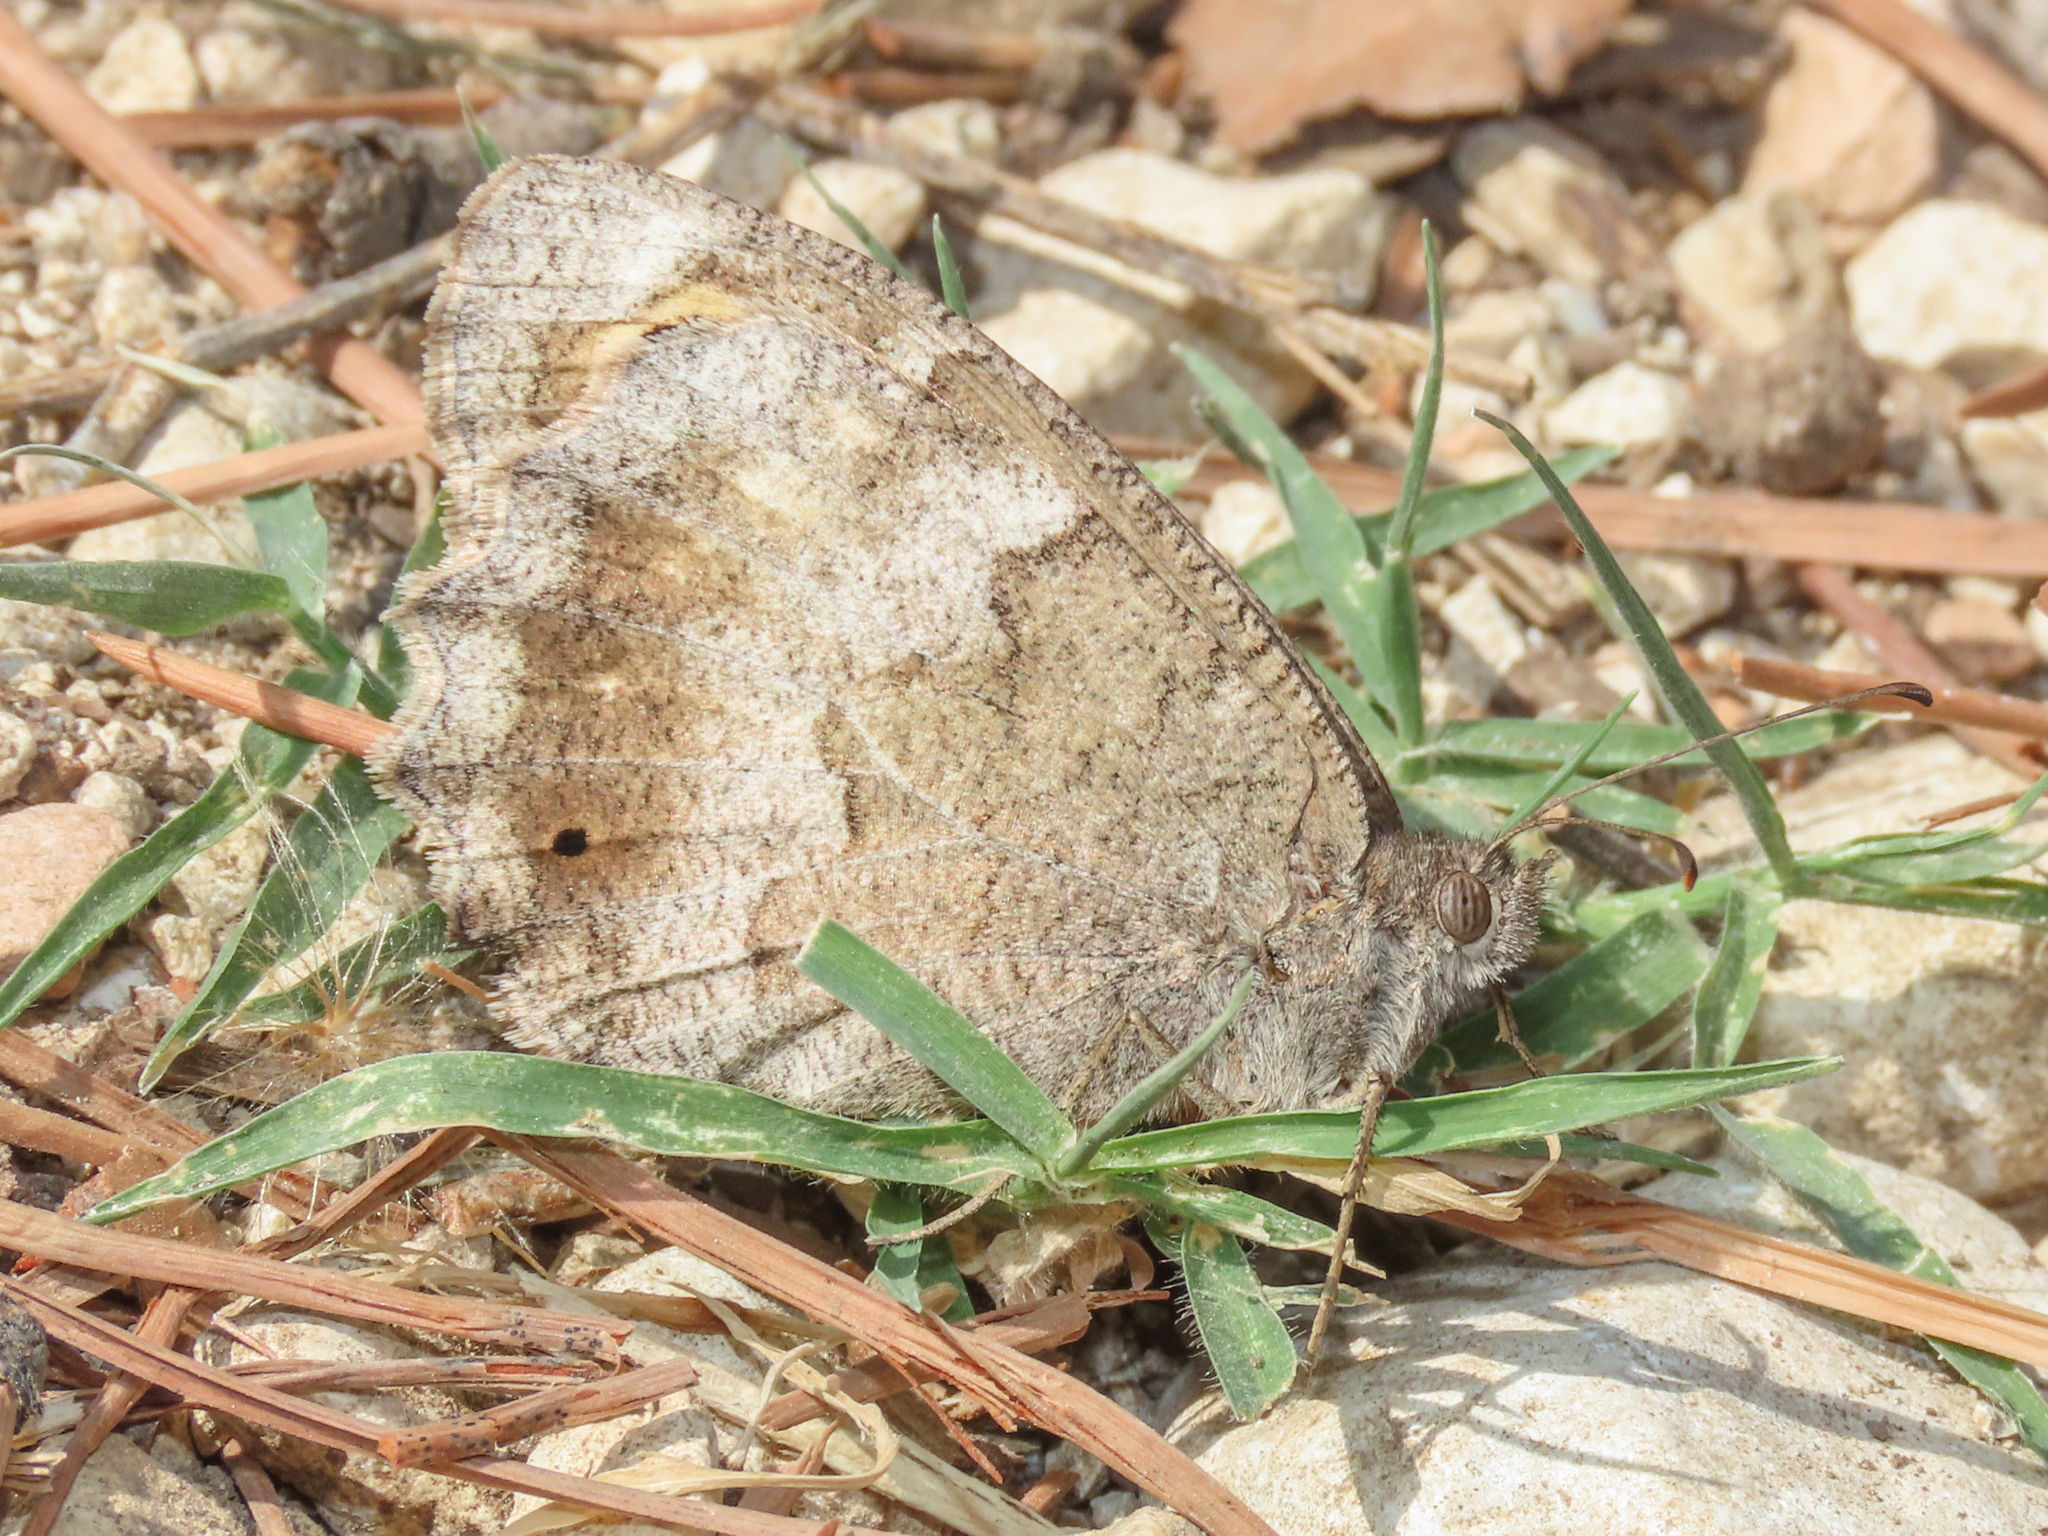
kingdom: Animalia
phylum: Arthropoda
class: Insecta
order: Lepidoptera
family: Nymphalidae
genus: Hipparchia
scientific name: Hipparchia statilinus
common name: Tree grayling
